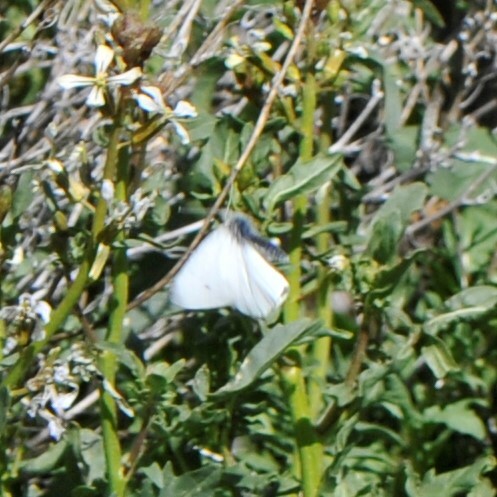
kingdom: Animalia
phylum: Arthropoda
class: Insecta
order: Lepidoptera
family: Pieridae
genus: Pieris
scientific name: Pieris rapae
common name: Small white
